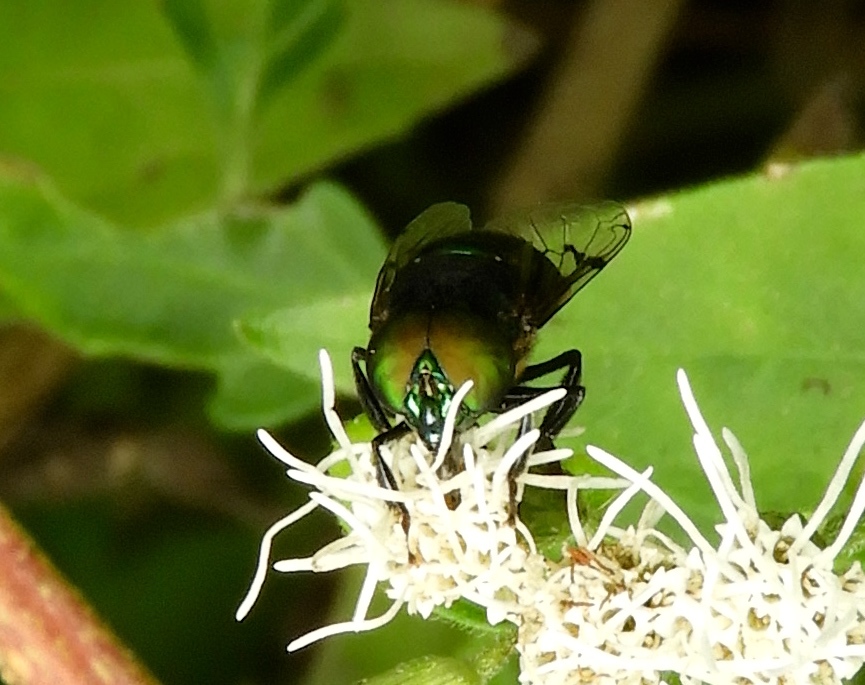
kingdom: Animalia
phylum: Arthropoda
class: Insecta
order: Diptera
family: Syrphidae
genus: Ornidia
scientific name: Ornidia obesa
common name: Syrphid fly
